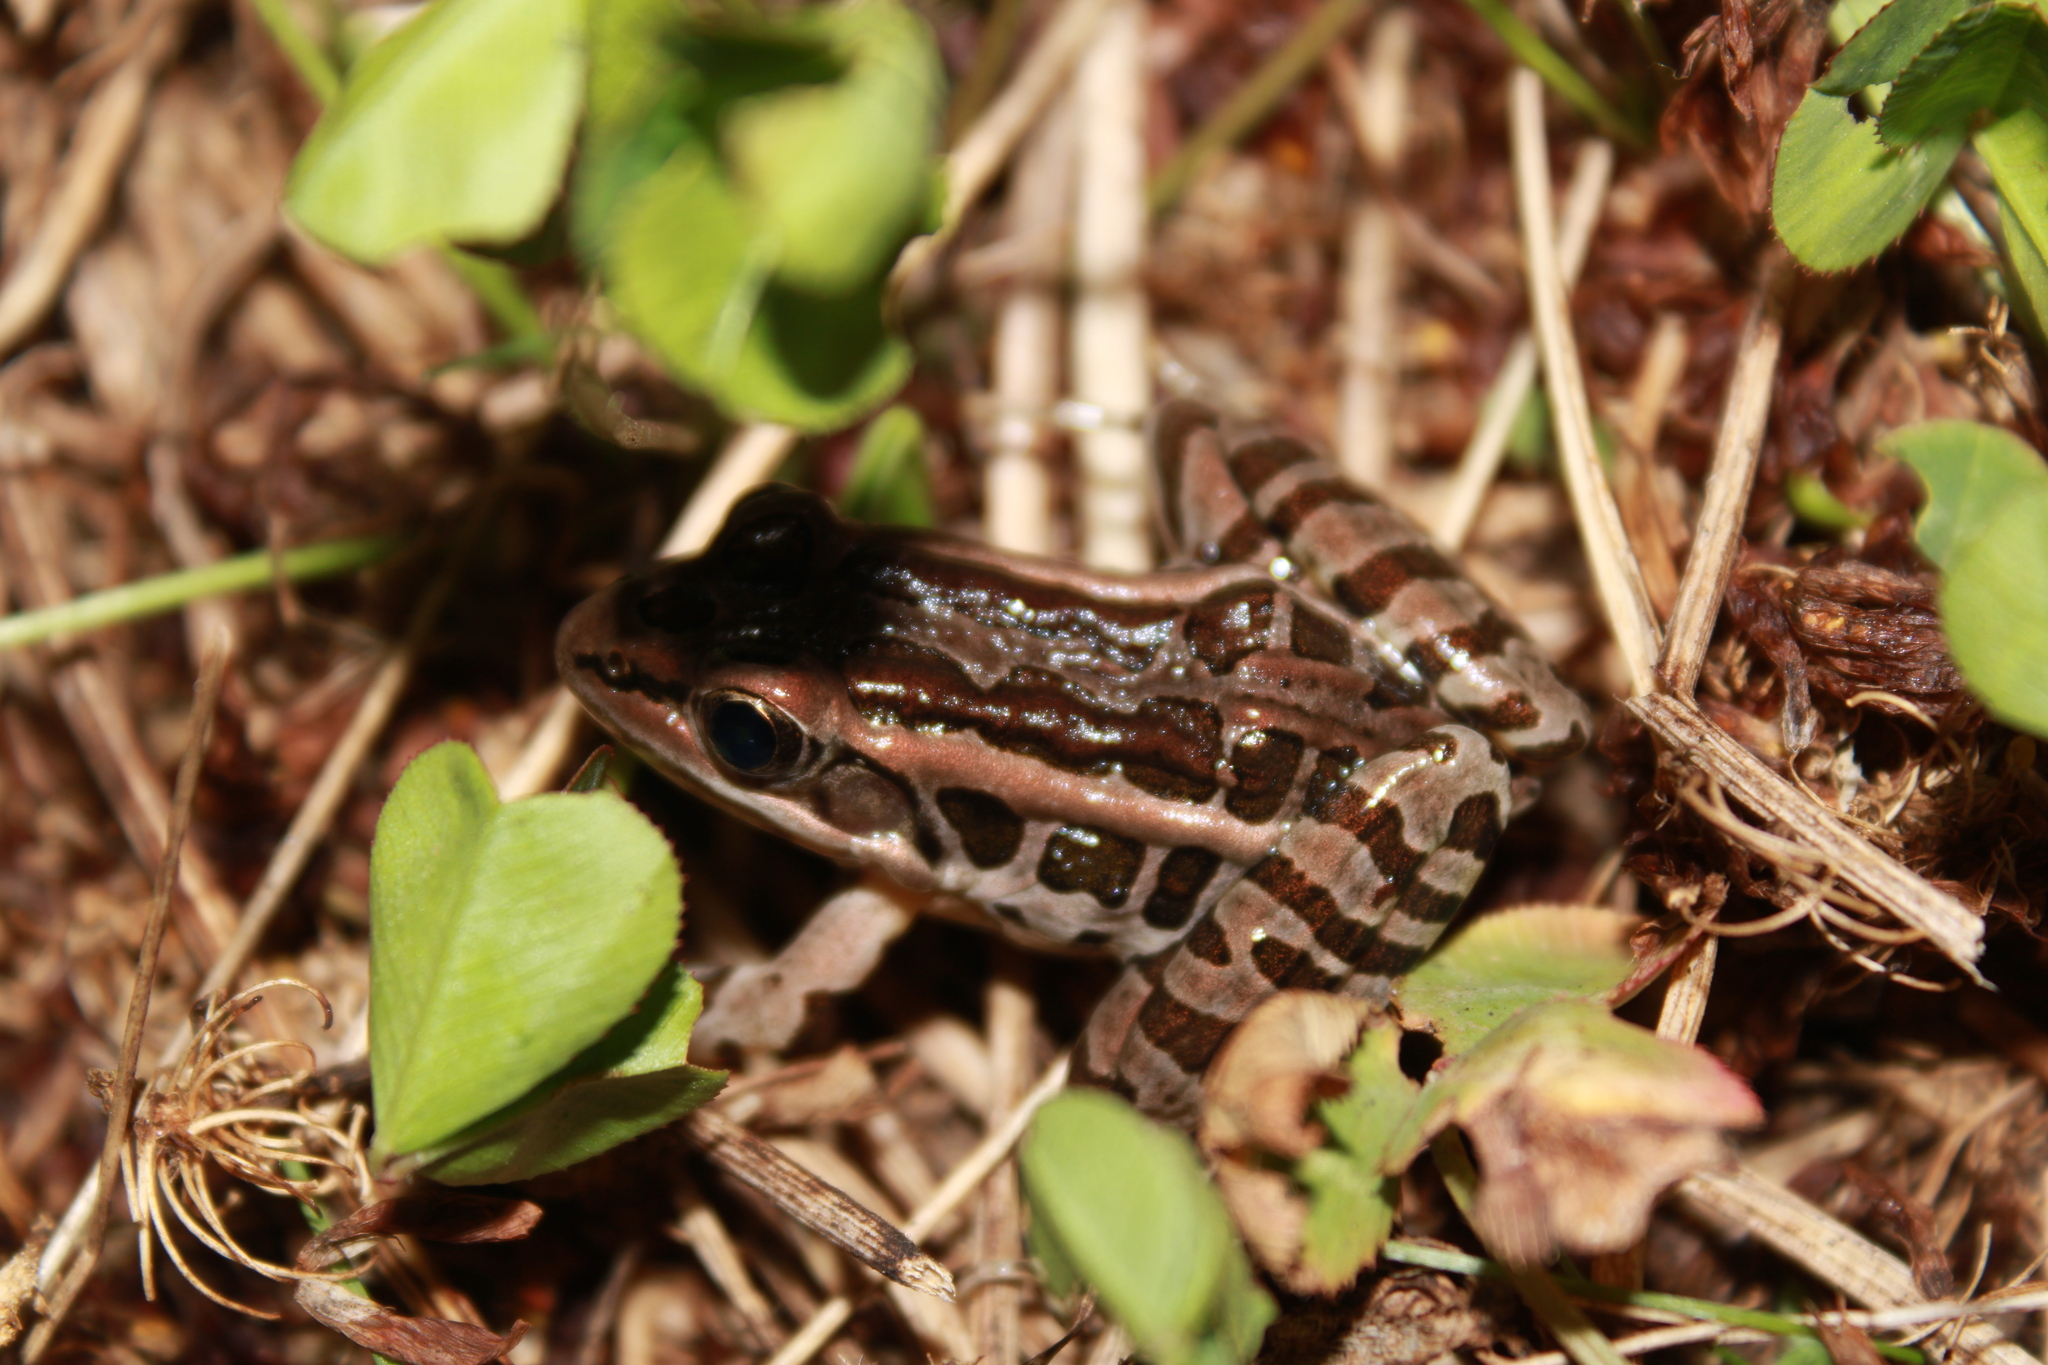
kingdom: Animalia
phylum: Chordata
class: Amphibia
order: Anura
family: Ranidae
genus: Lithobates
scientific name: Lithobates palustris
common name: Pickerel frog
